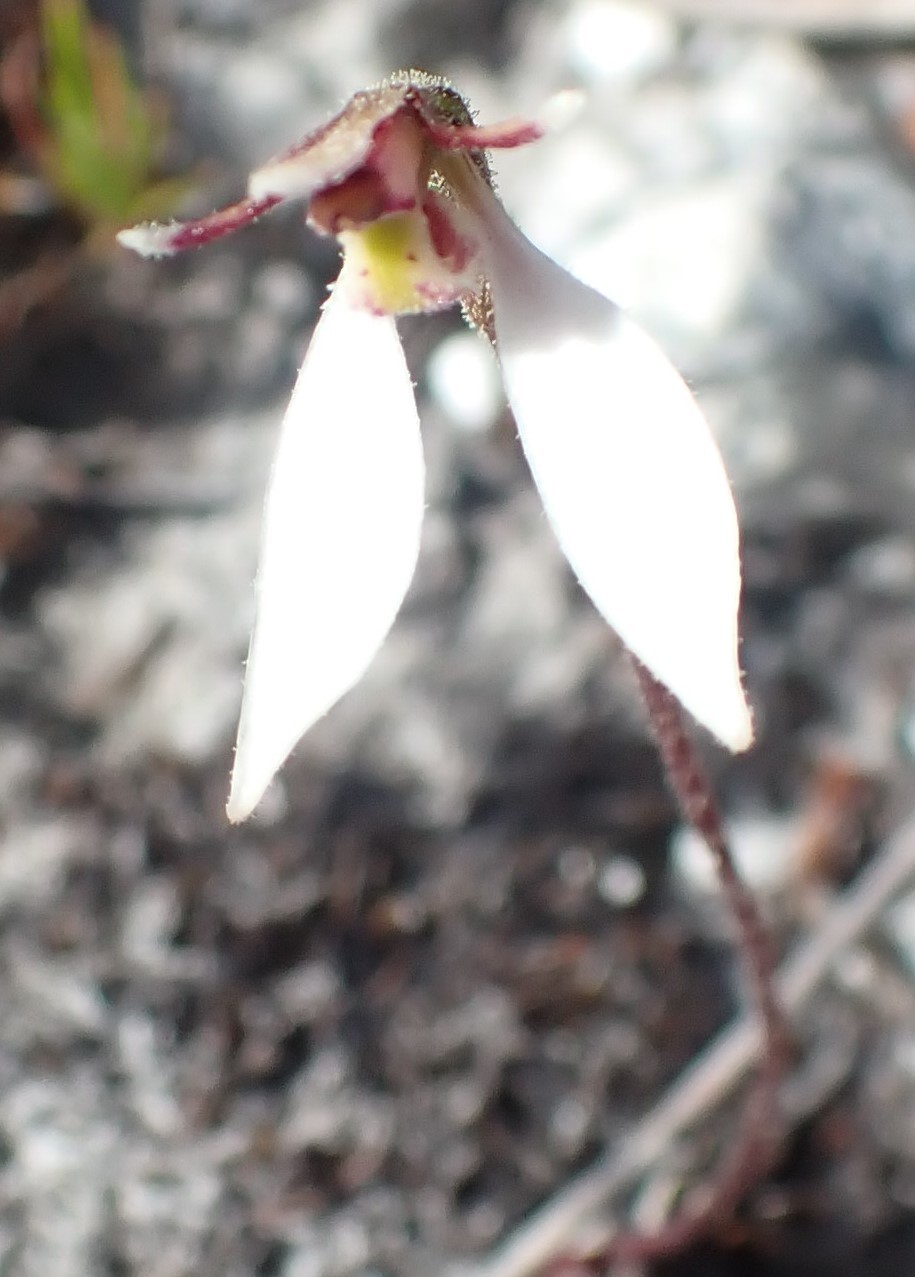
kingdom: Plantae
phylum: Tracheophyta
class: Liliopsida
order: Asparagales
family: Orchidaceae
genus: Eriochilus
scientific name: Eriochilus cucullatus
